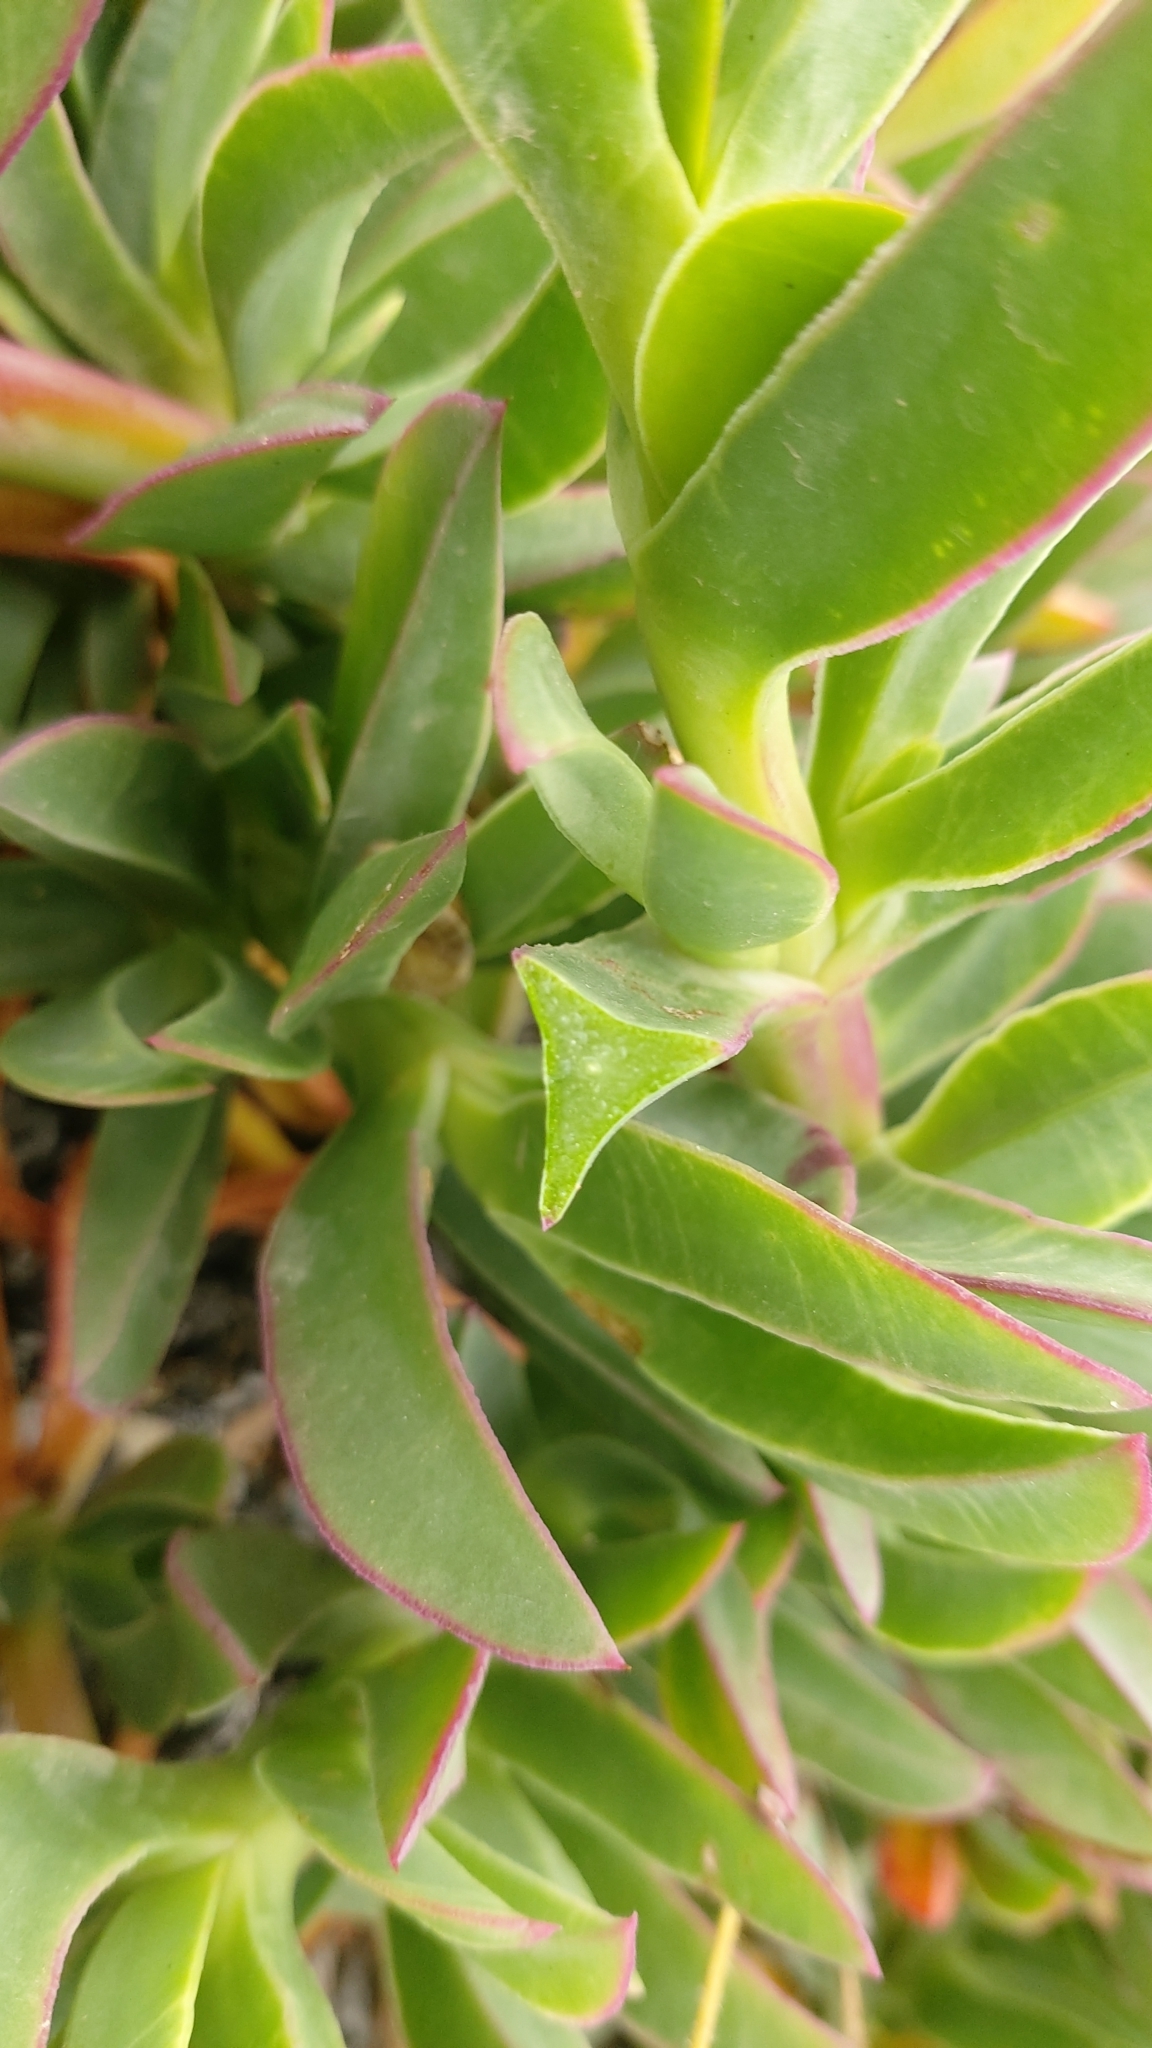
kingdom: Plantae
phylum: Tracheophyta
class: Magnoliopsida
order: Caryophyllales
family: Aizoaceae
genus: Carpobrotus
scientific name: Carpobrotus edulis
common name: Hottentot-fig
